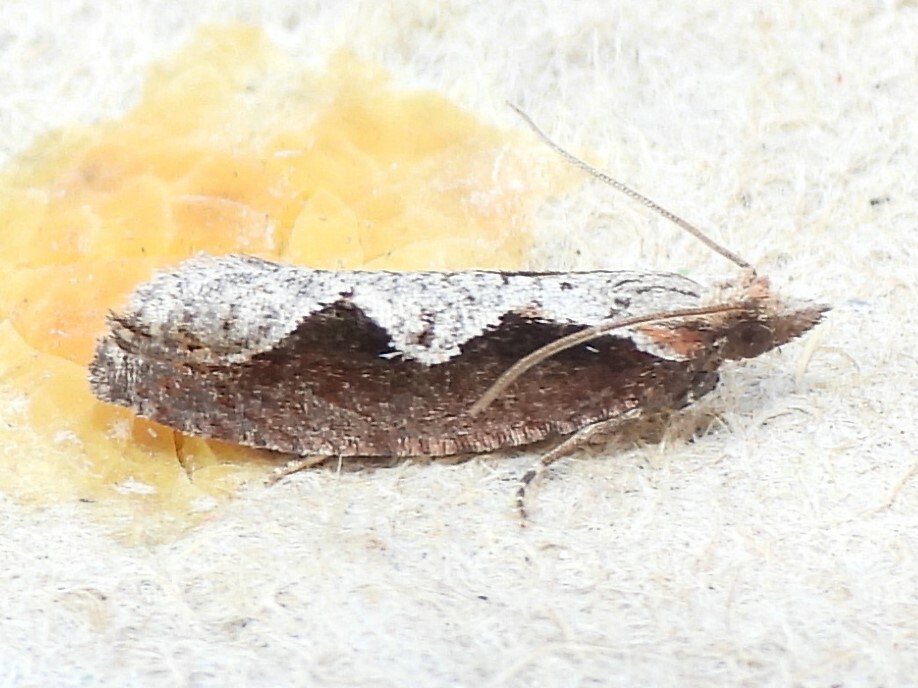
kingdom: Animalia
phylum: Arthropoda
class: Insecta
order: Lepidoptera
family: Tortricidae
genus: Epinotia
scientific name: Epinotia lindana
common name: Diamondback epinotia moth
